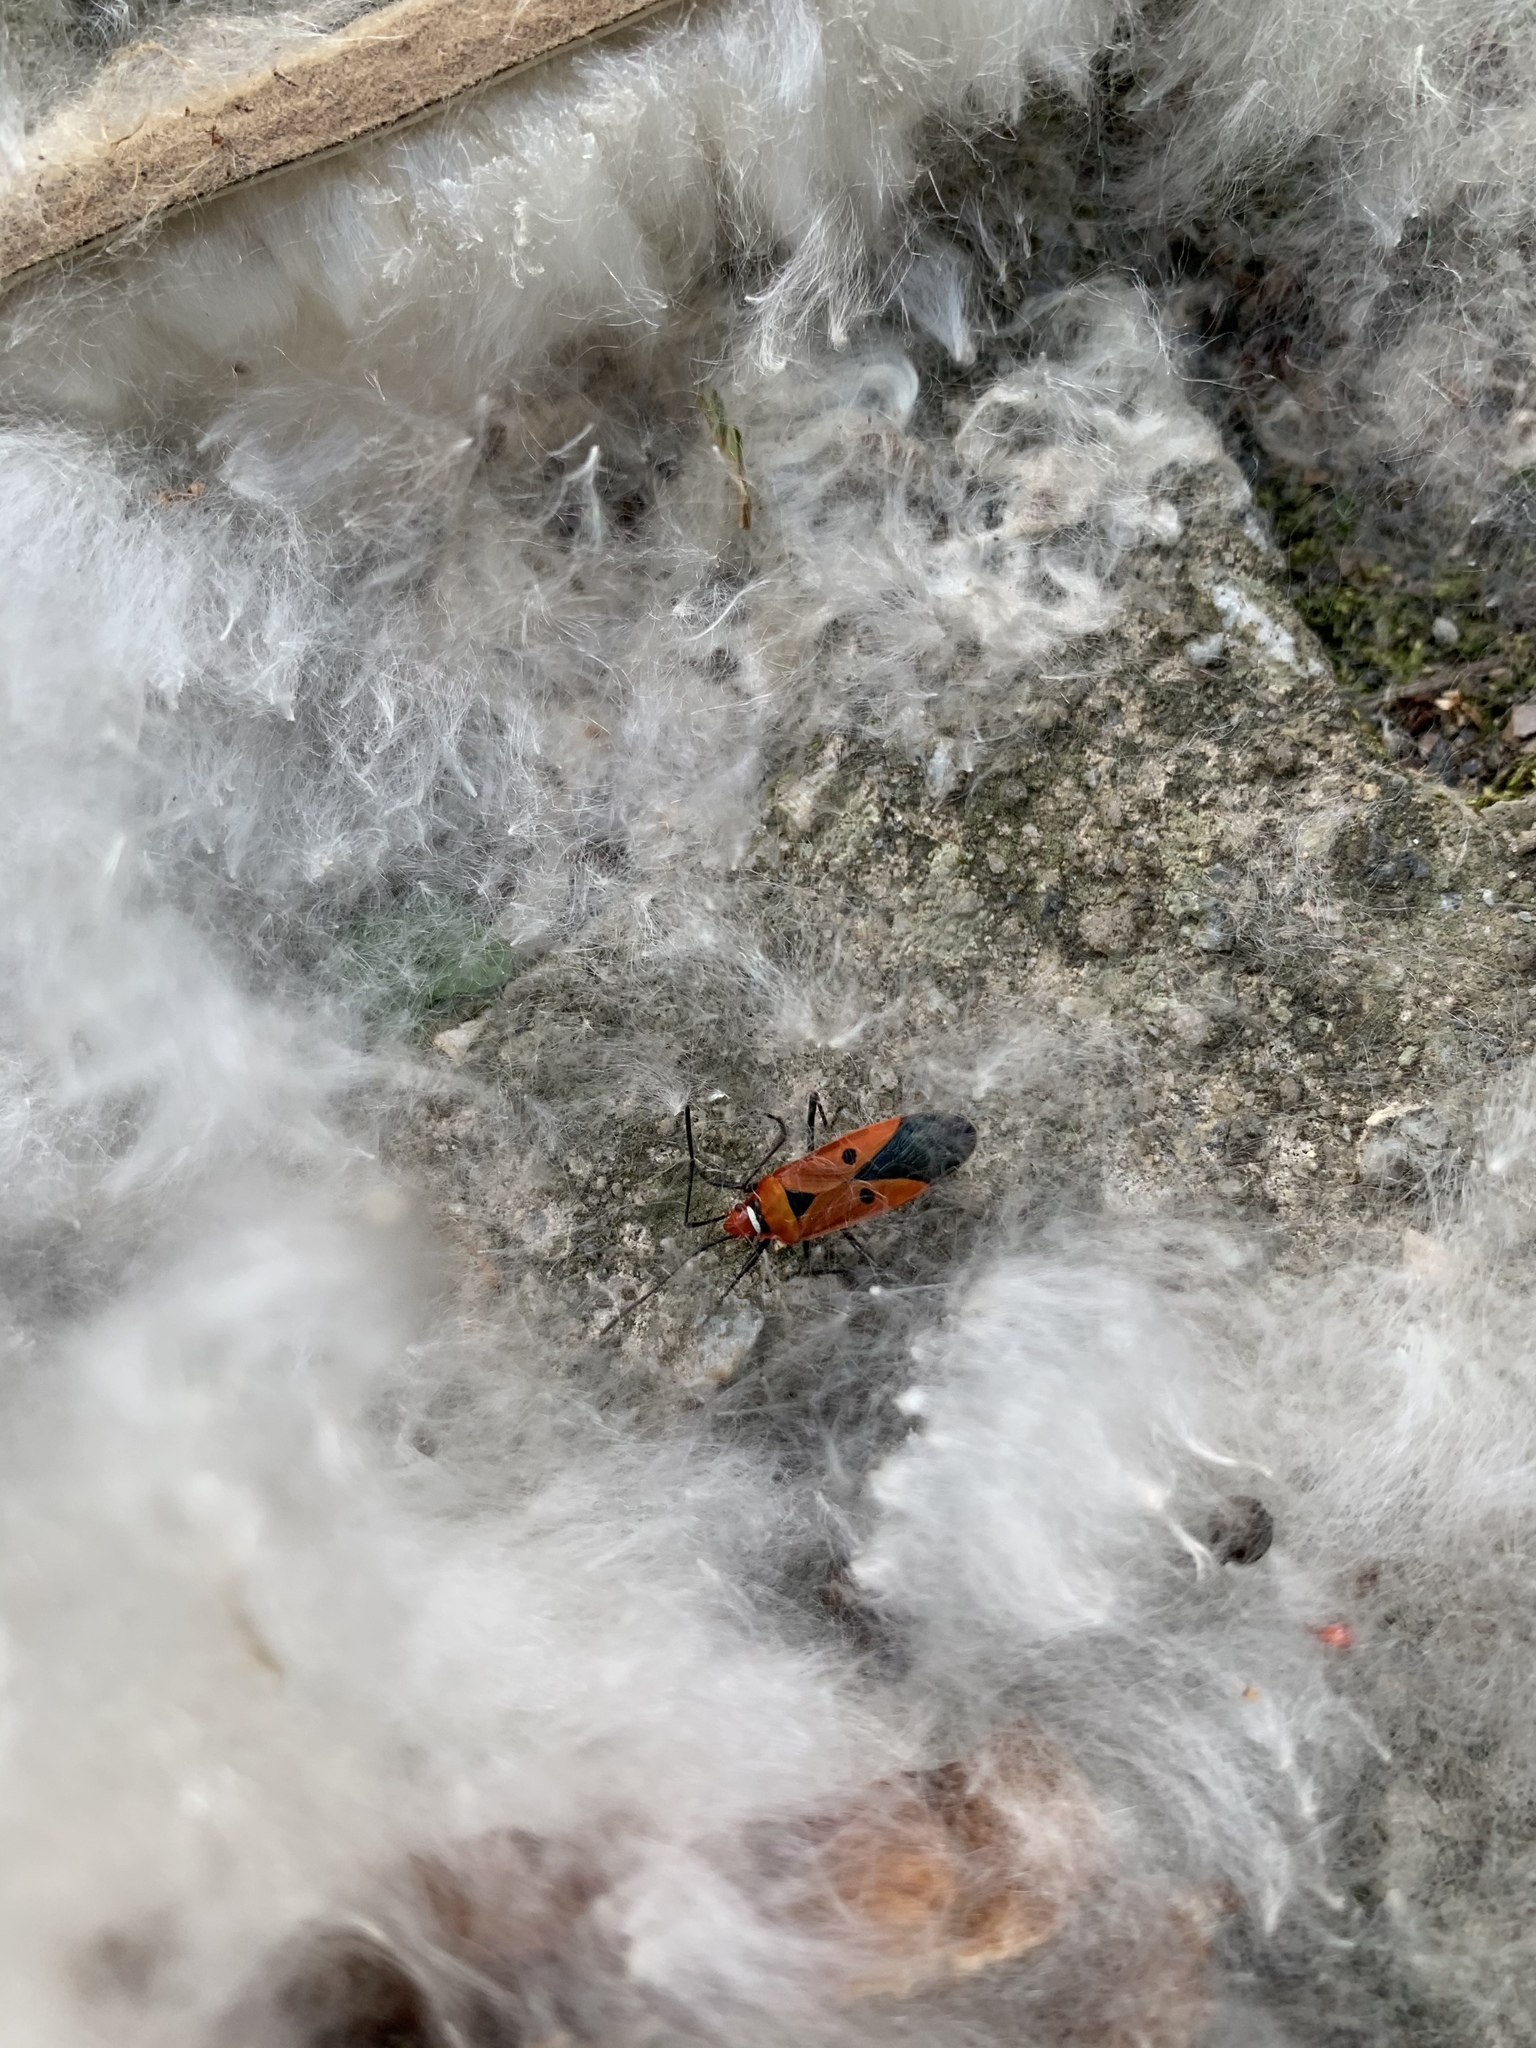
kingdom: Animalia
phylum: Arthropoda
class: Insecta
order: Hemiptera
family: Pyrrhocoridae
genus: Dysdercus
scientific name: Dysdercus cingulatus
